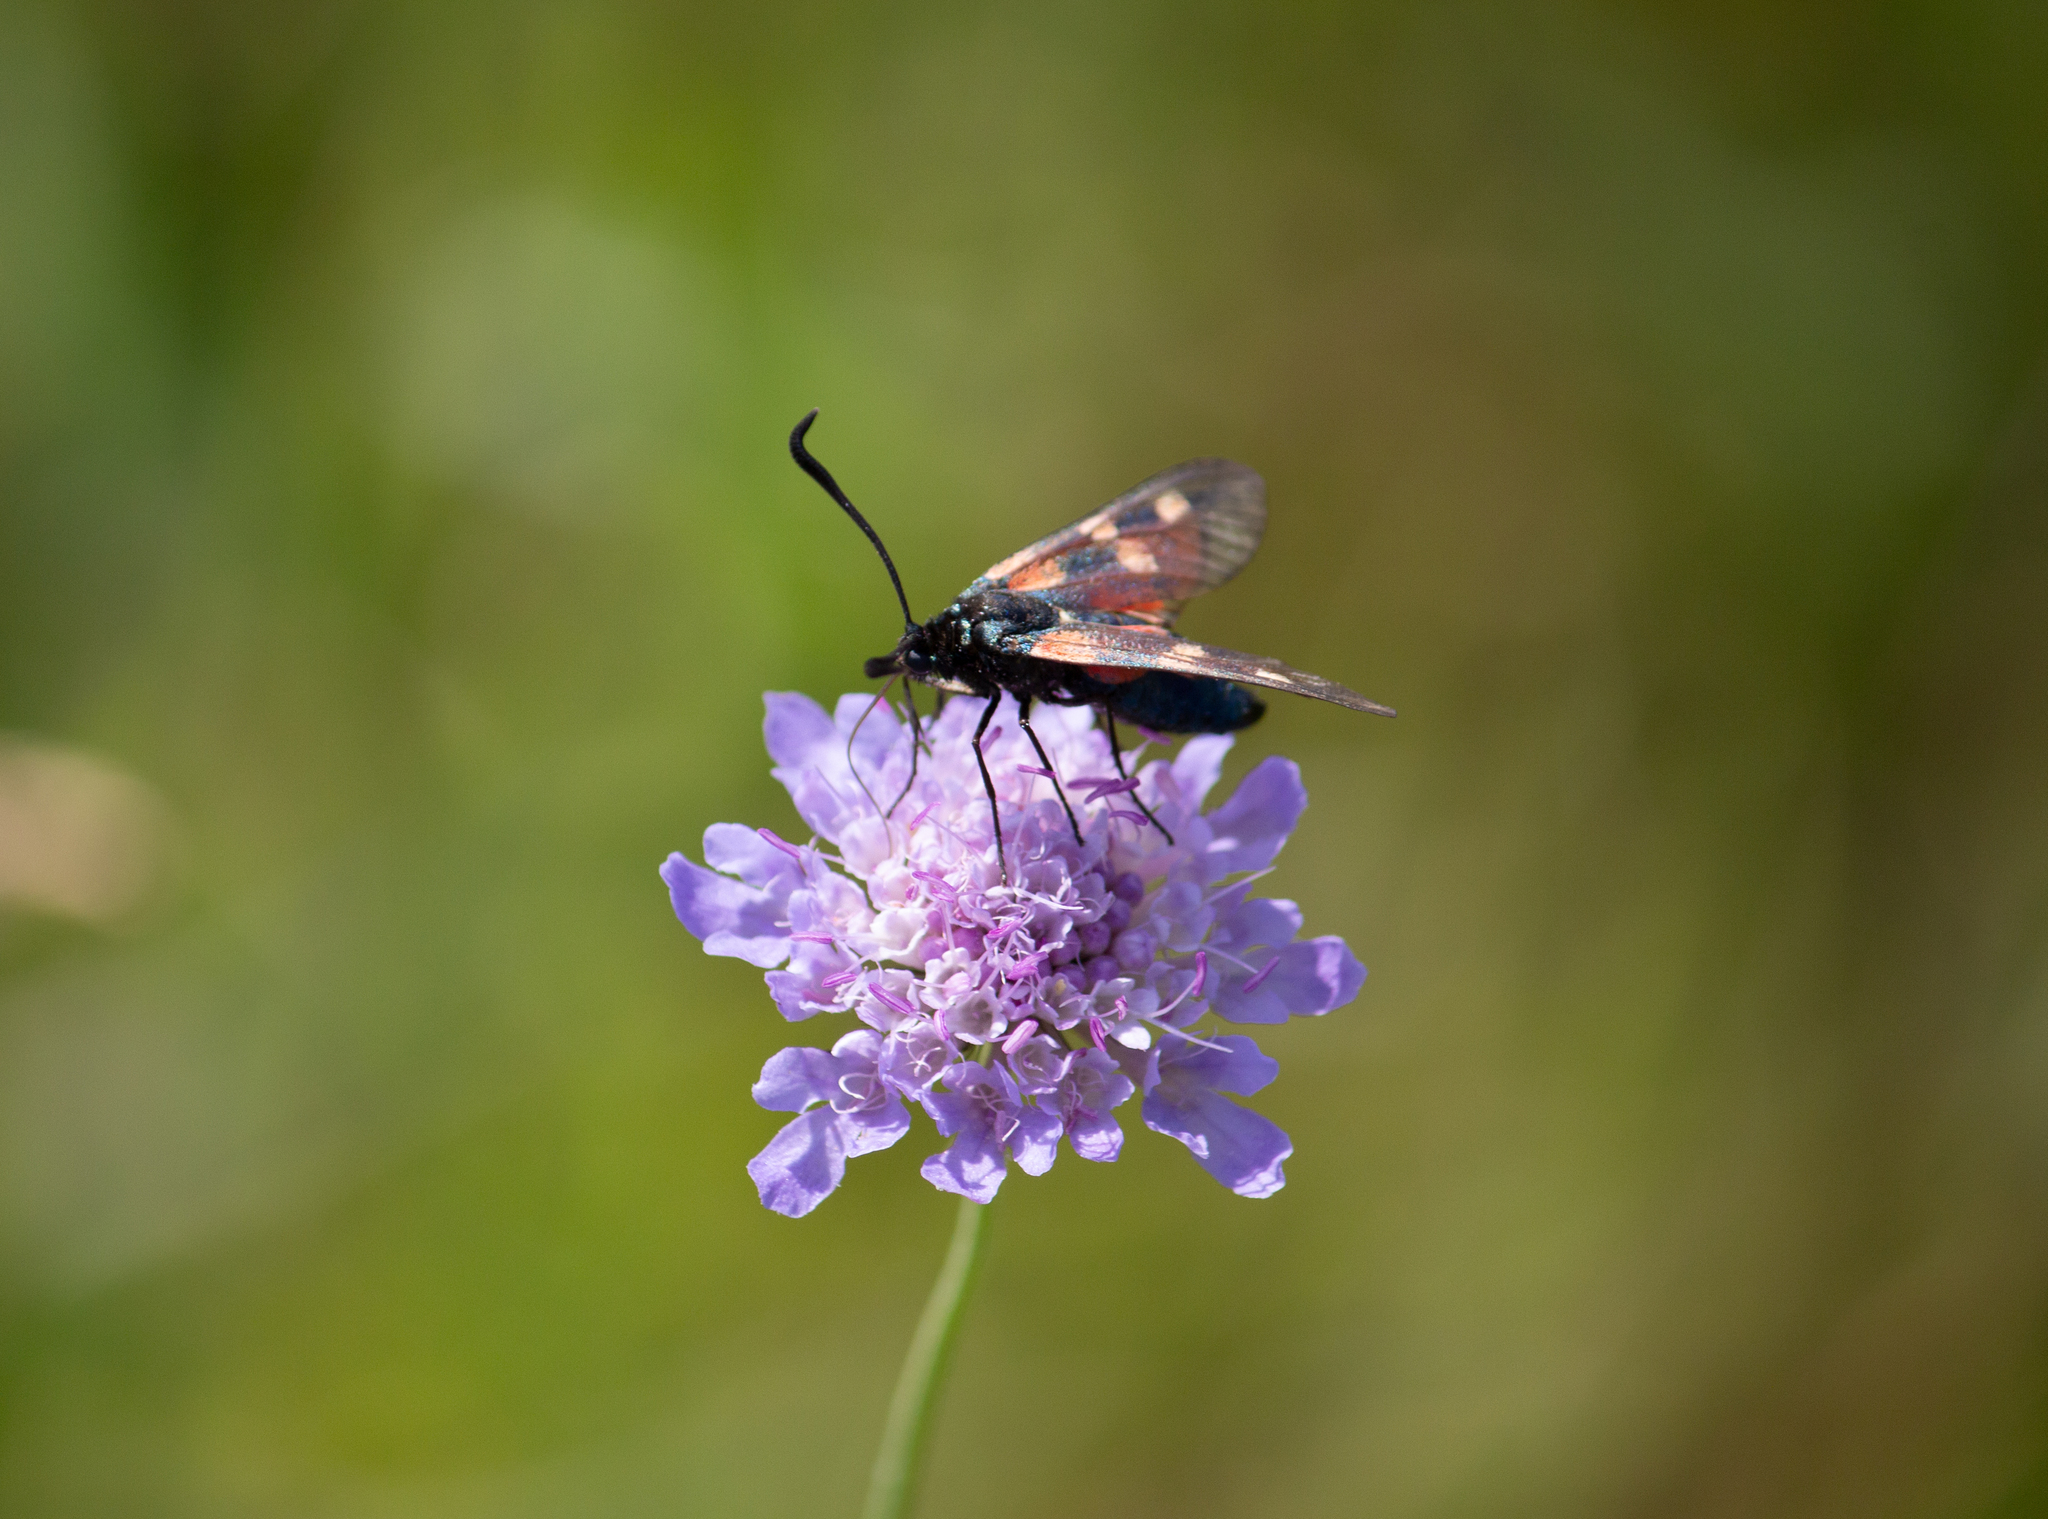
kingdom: Animalia
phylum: Arthropoda
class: Insecta
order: Lepidoptera
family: Zygaenidae
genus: Zygaena
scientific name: Zygaena lonicerae
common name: Narrow-bordered five-spot burnet
